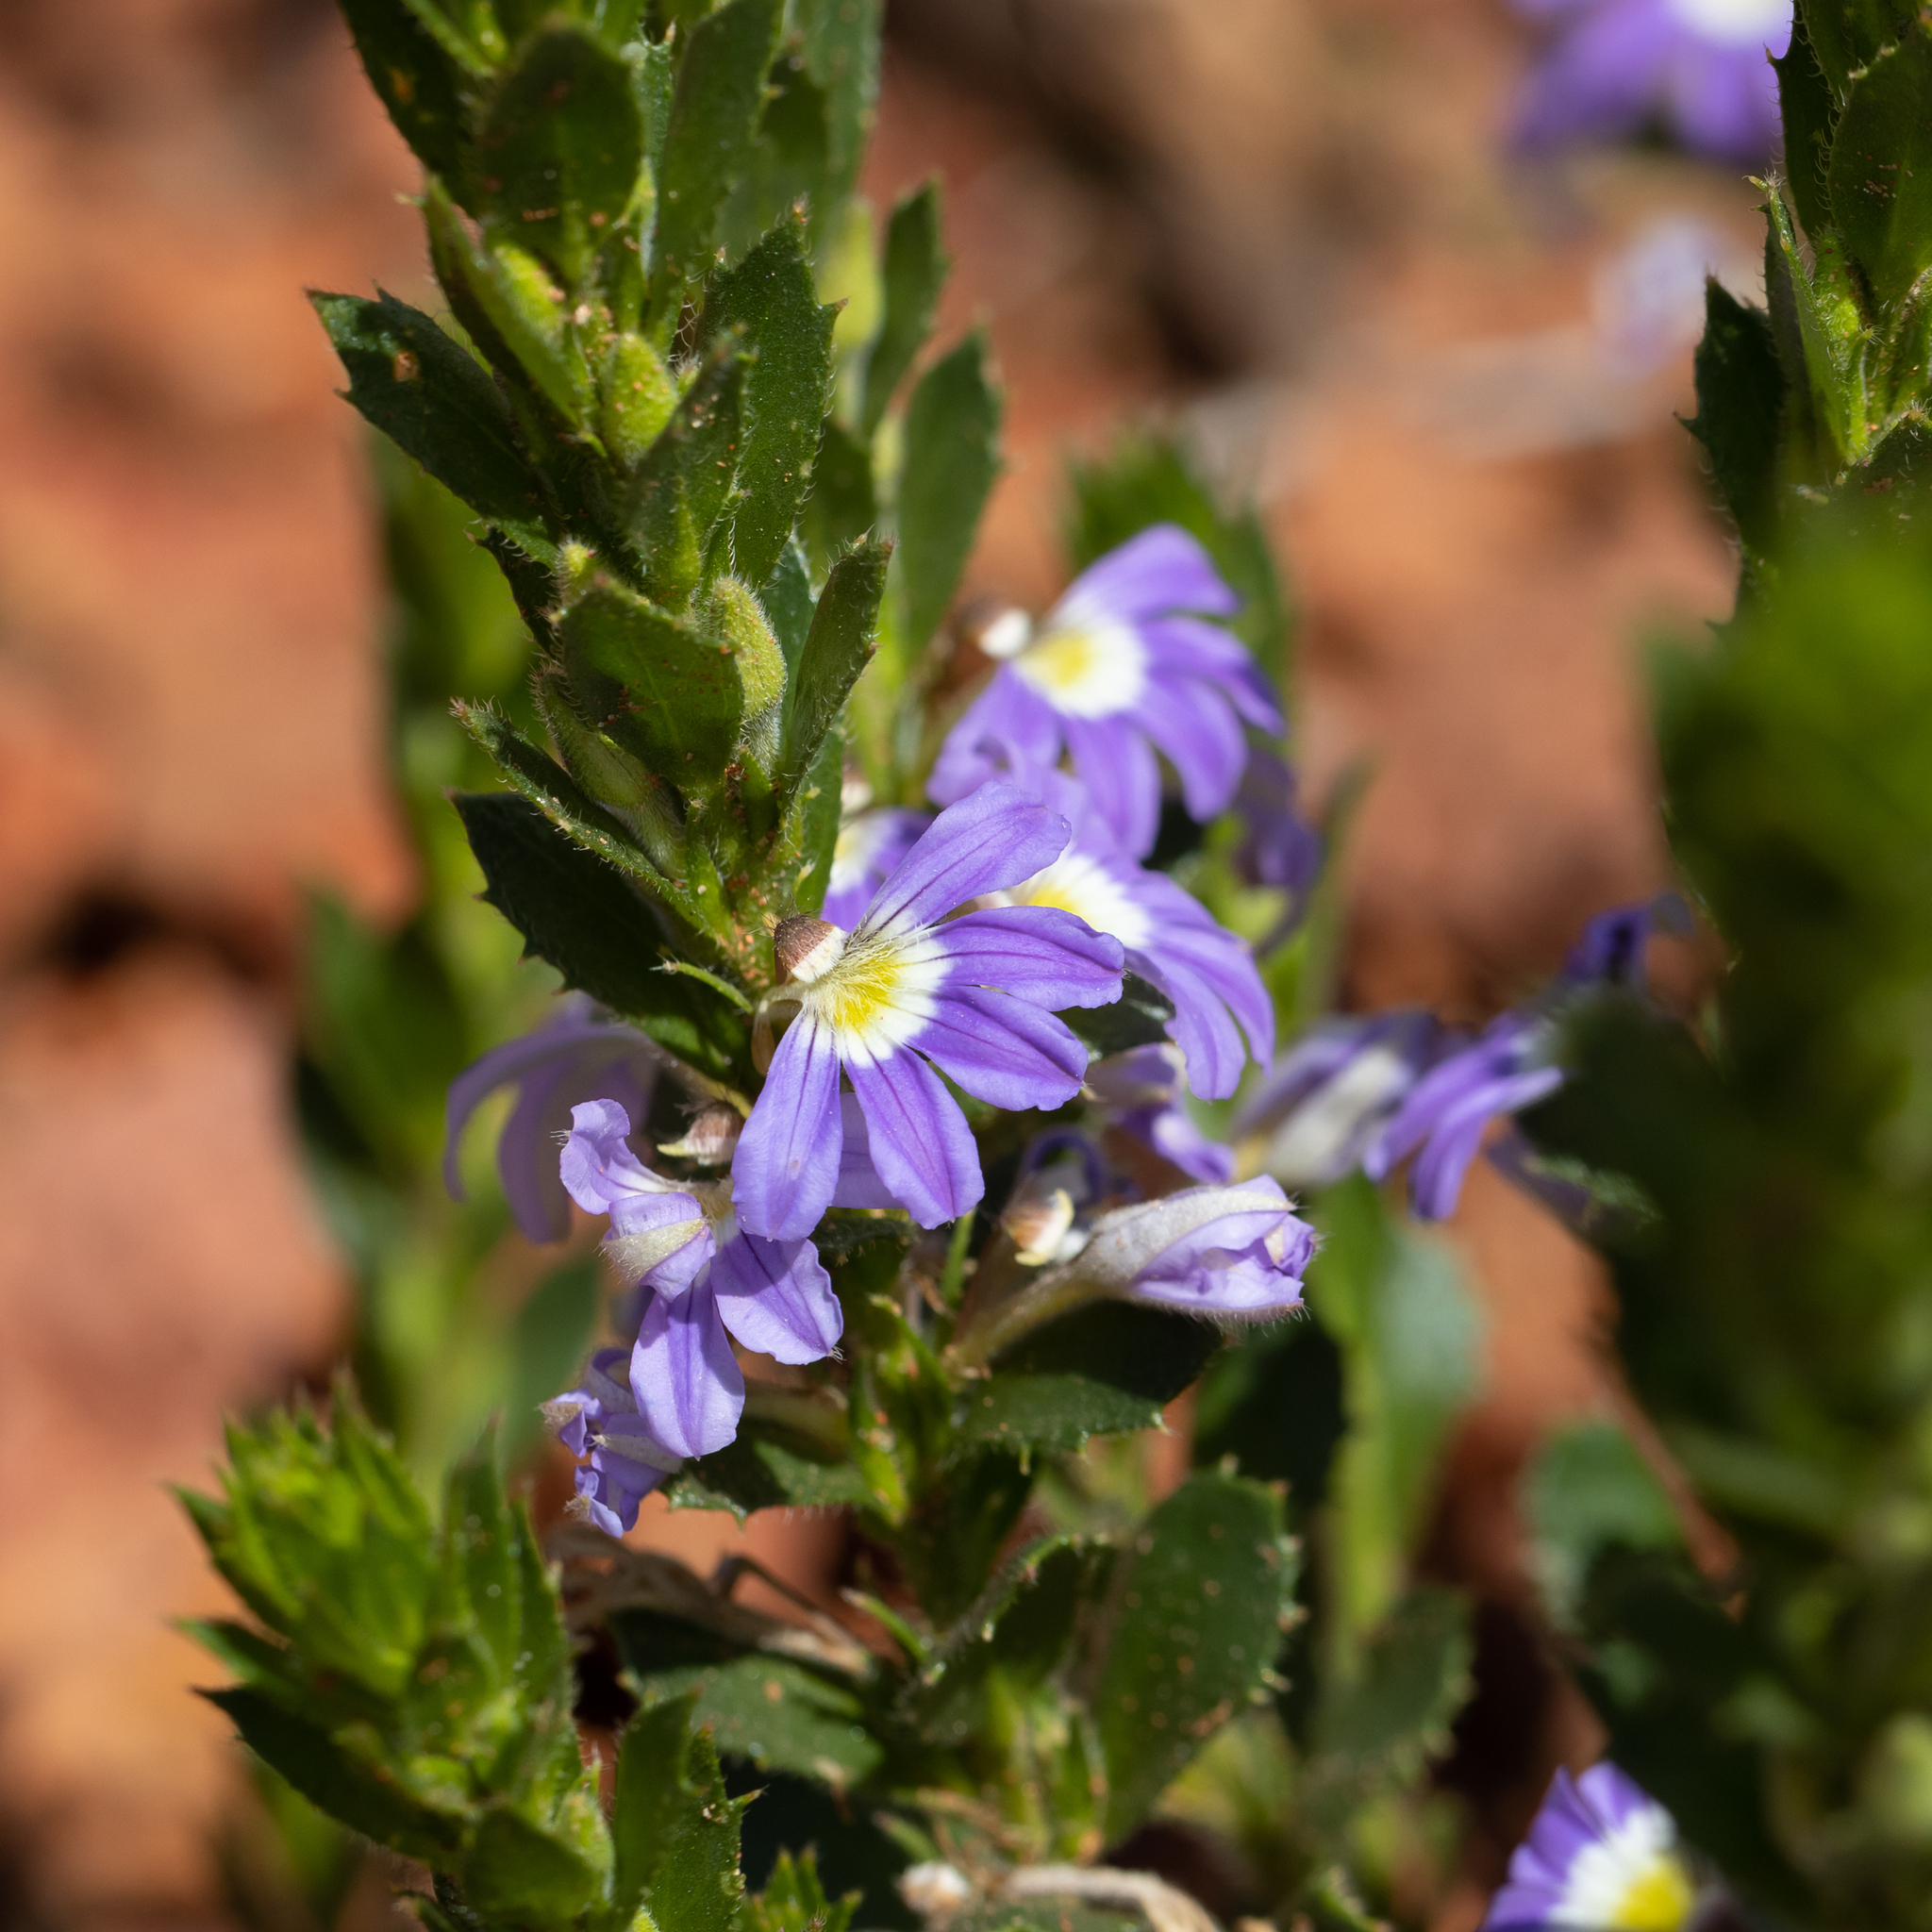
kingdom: Plantae
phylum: Tracheophyta
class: Magnoliopsida
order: Asterales
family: Goodeniaceae
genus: Scaevola
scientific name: Scaevola aemula
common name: Common fanflower
